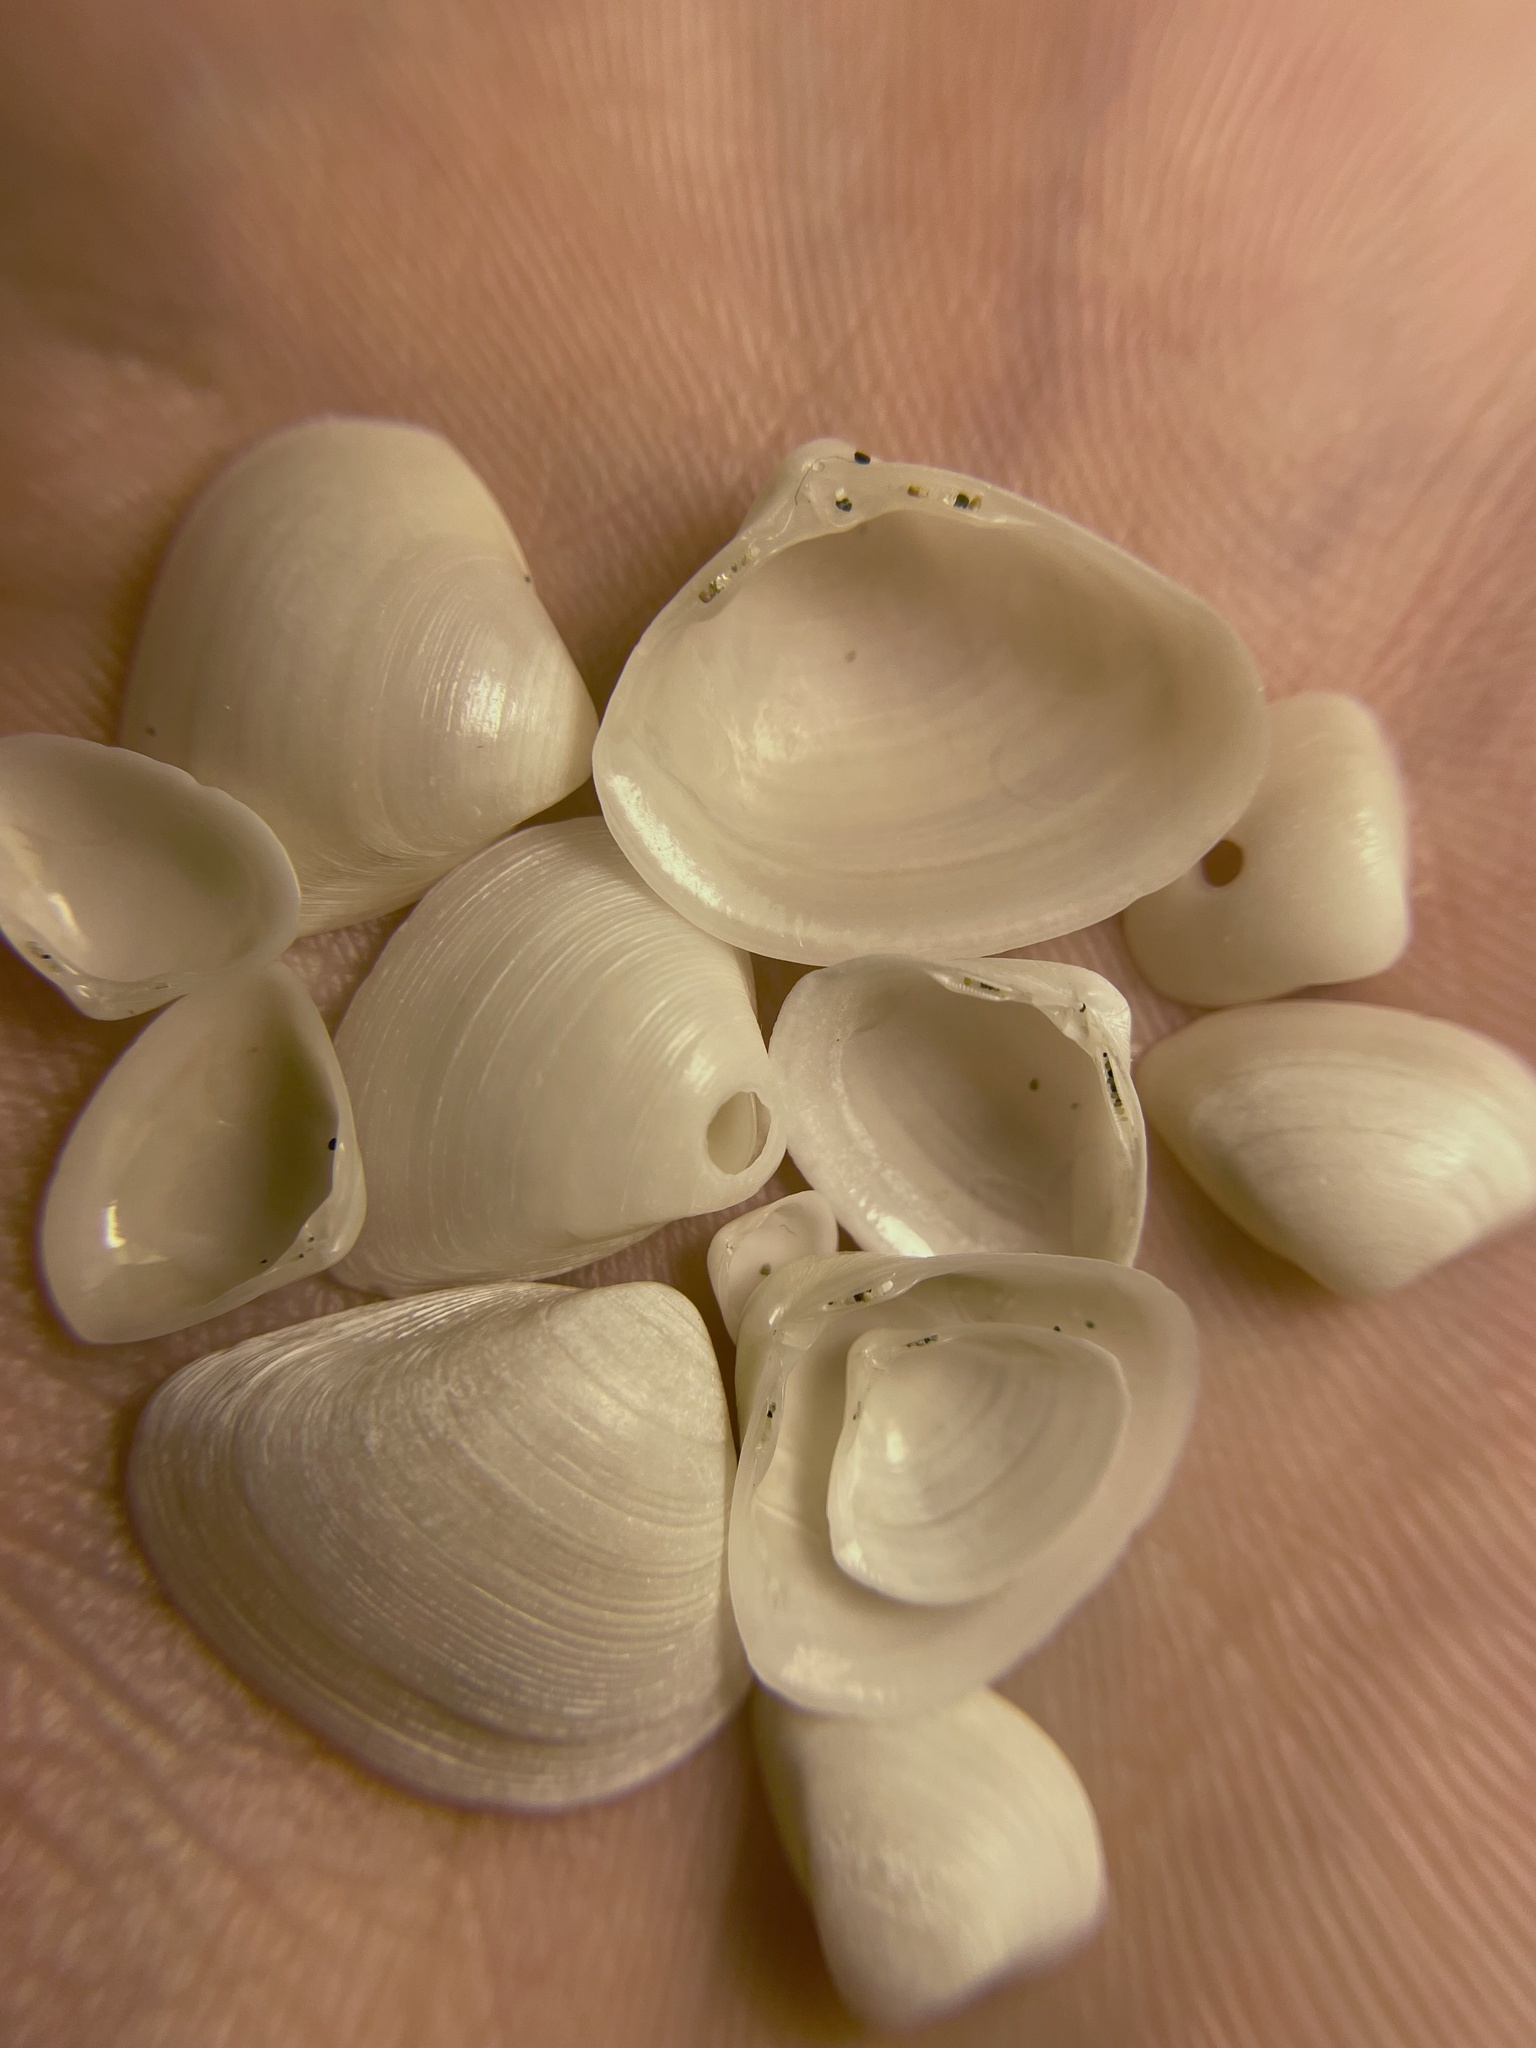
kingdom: Animalia
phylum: Mollusca
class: Bivalvia
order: Venerida
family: Mactridae
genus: Spisula
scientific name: Spisula subtruncata
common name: Cut trough shell
